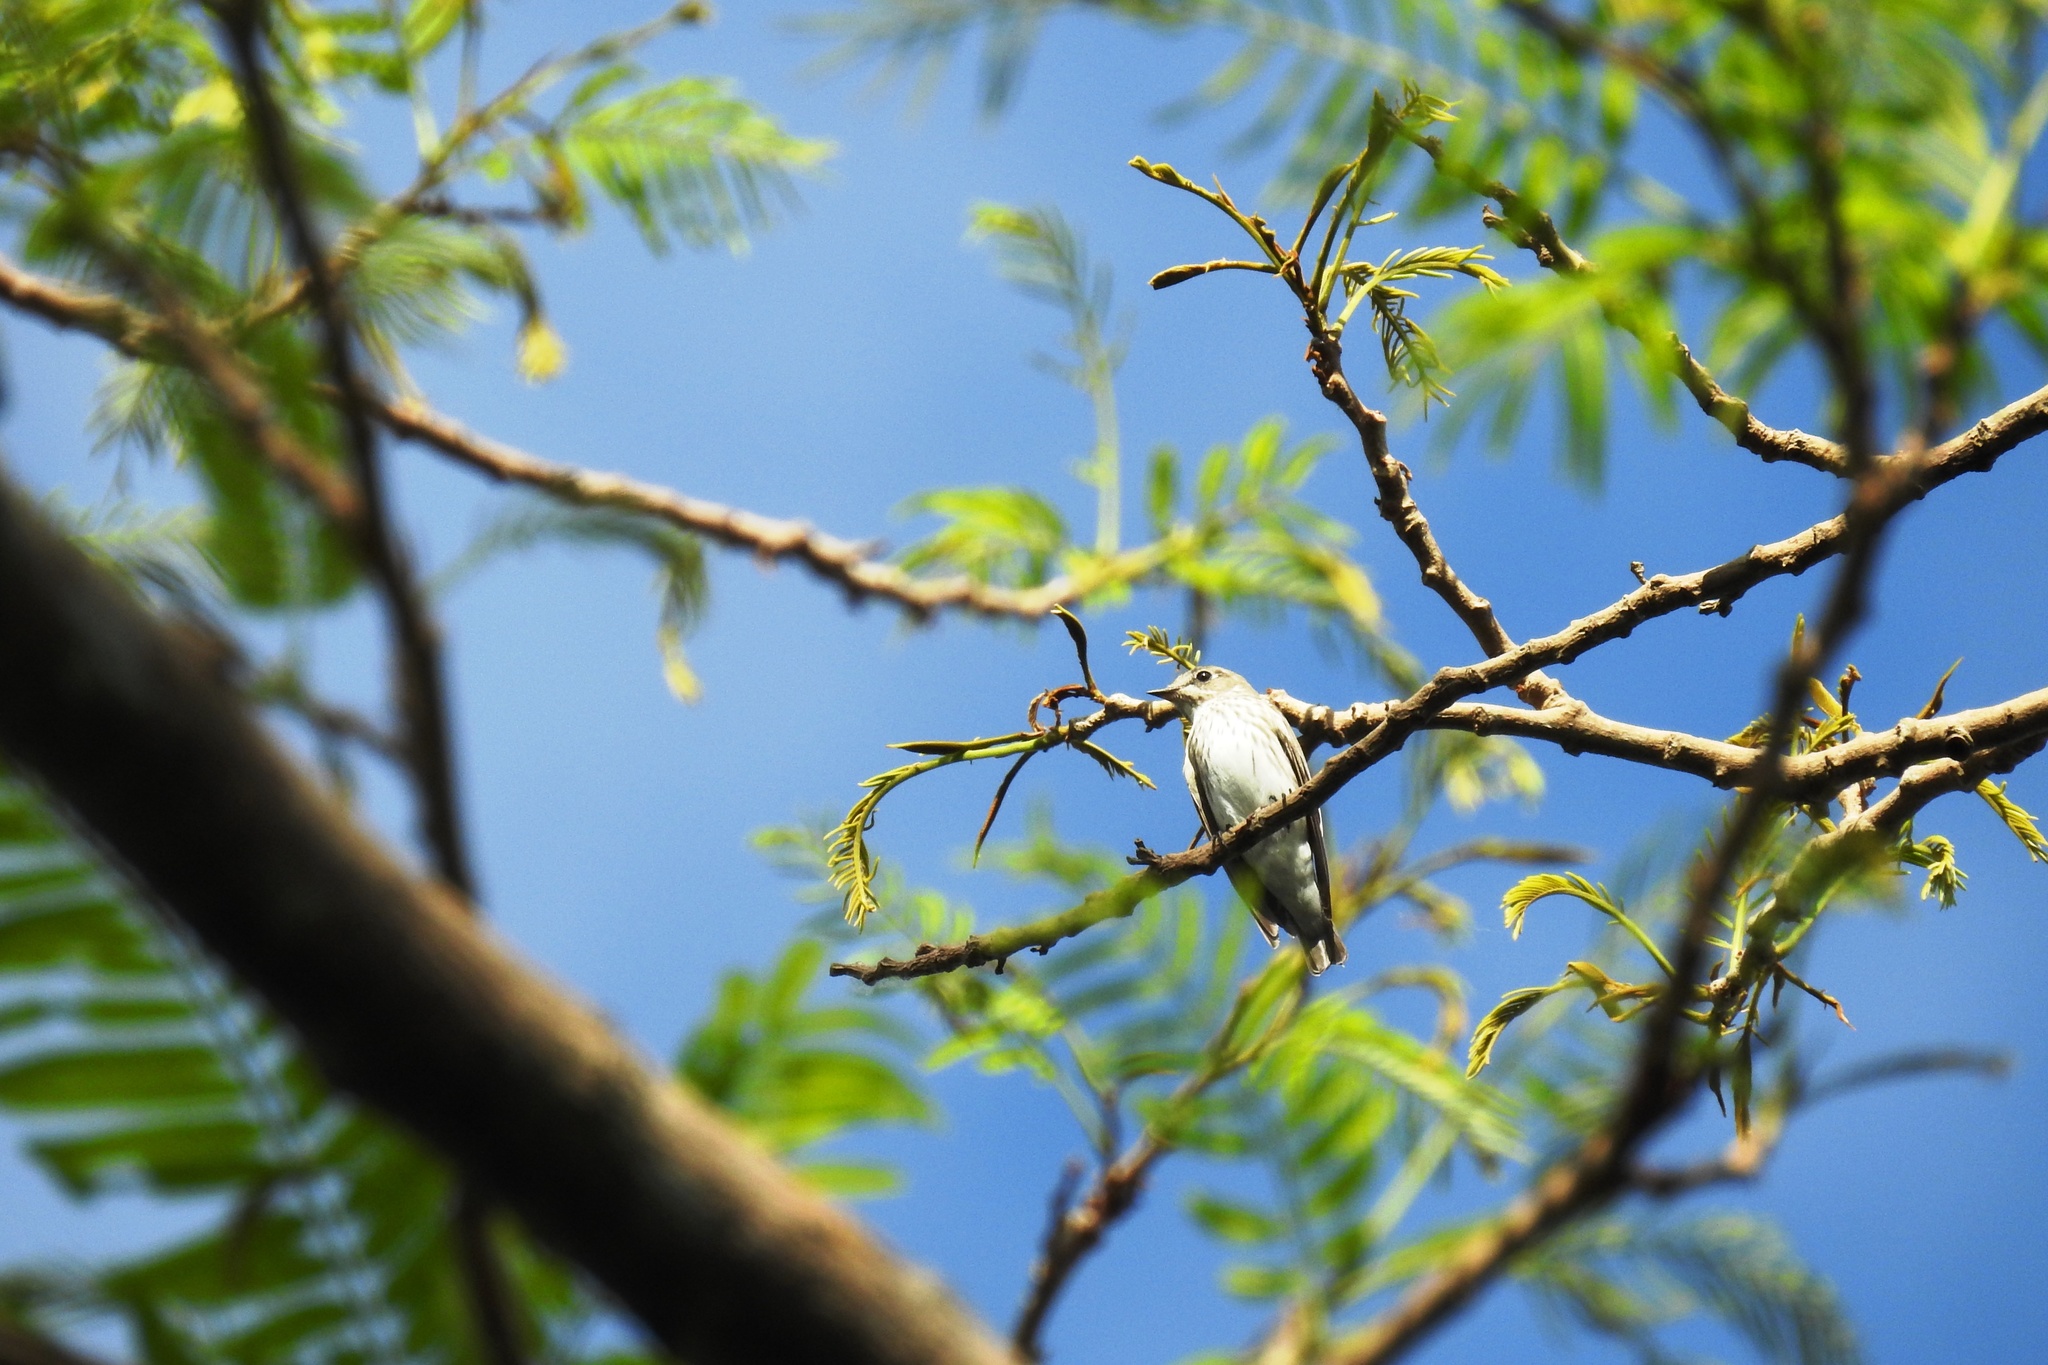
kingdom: Animalia
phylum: Chordata
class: Aves
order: Passeriformes
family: Muscicapidae
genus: Muscicapa
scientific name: Muscicapa griseisticta
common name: Gray-streaked flycatcher
